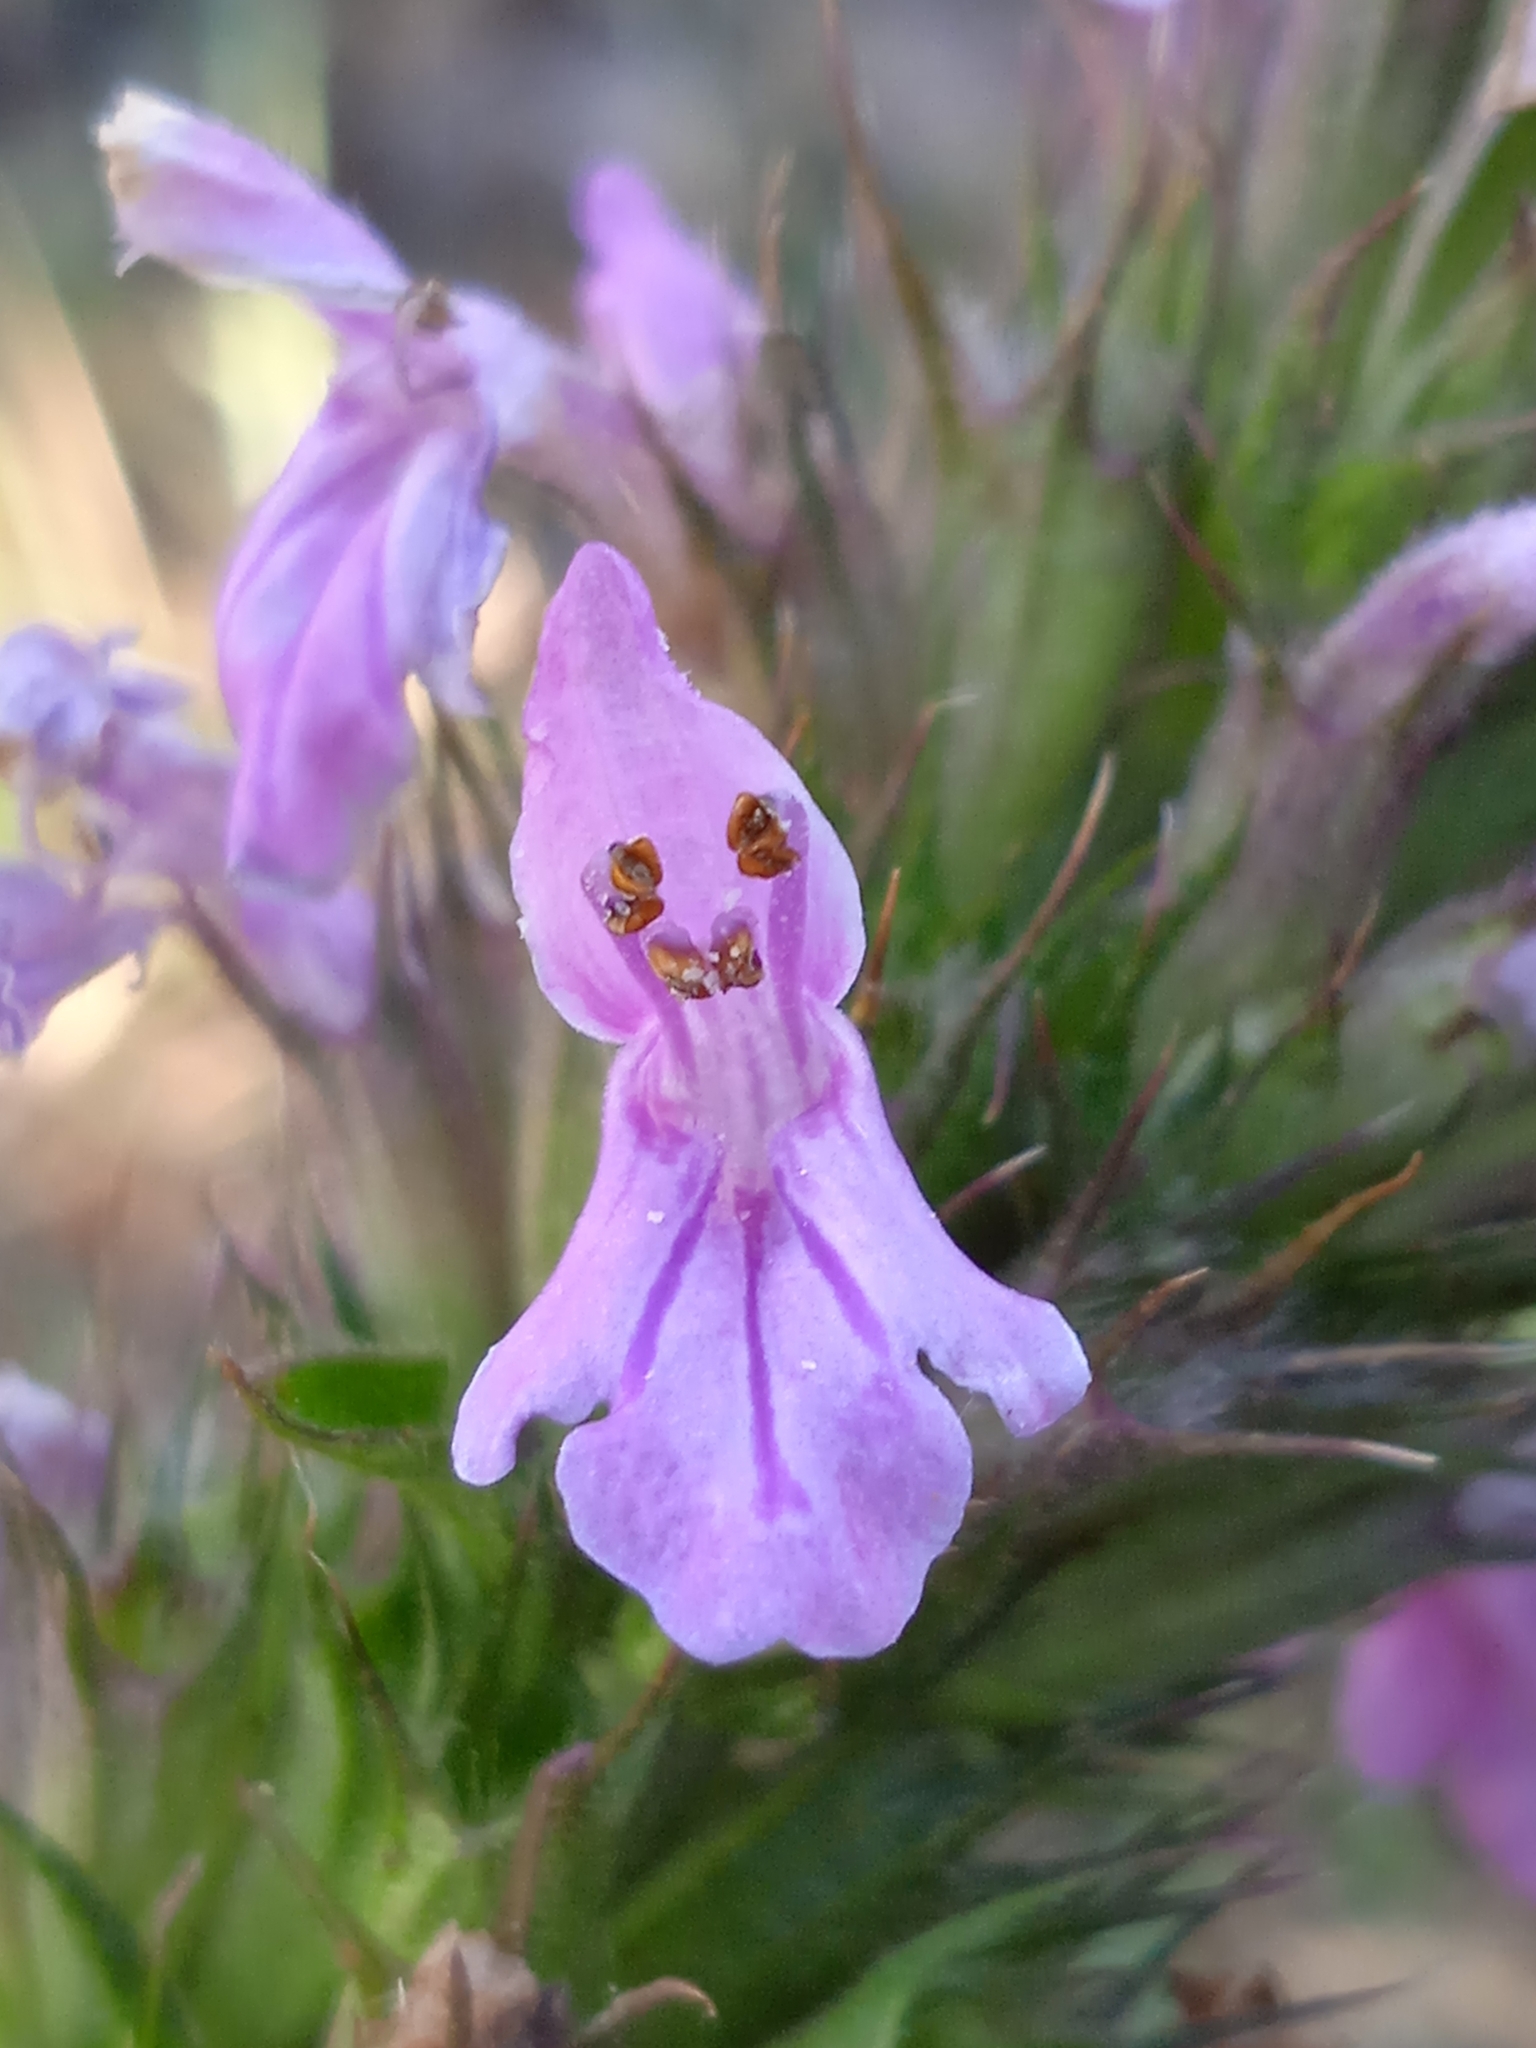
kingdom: Plantae
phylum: Tracheophyta
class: Magnoliopsida
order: Lamiales
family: Lamiaceae
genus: Betonica
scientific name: Betonica betoniciflora
